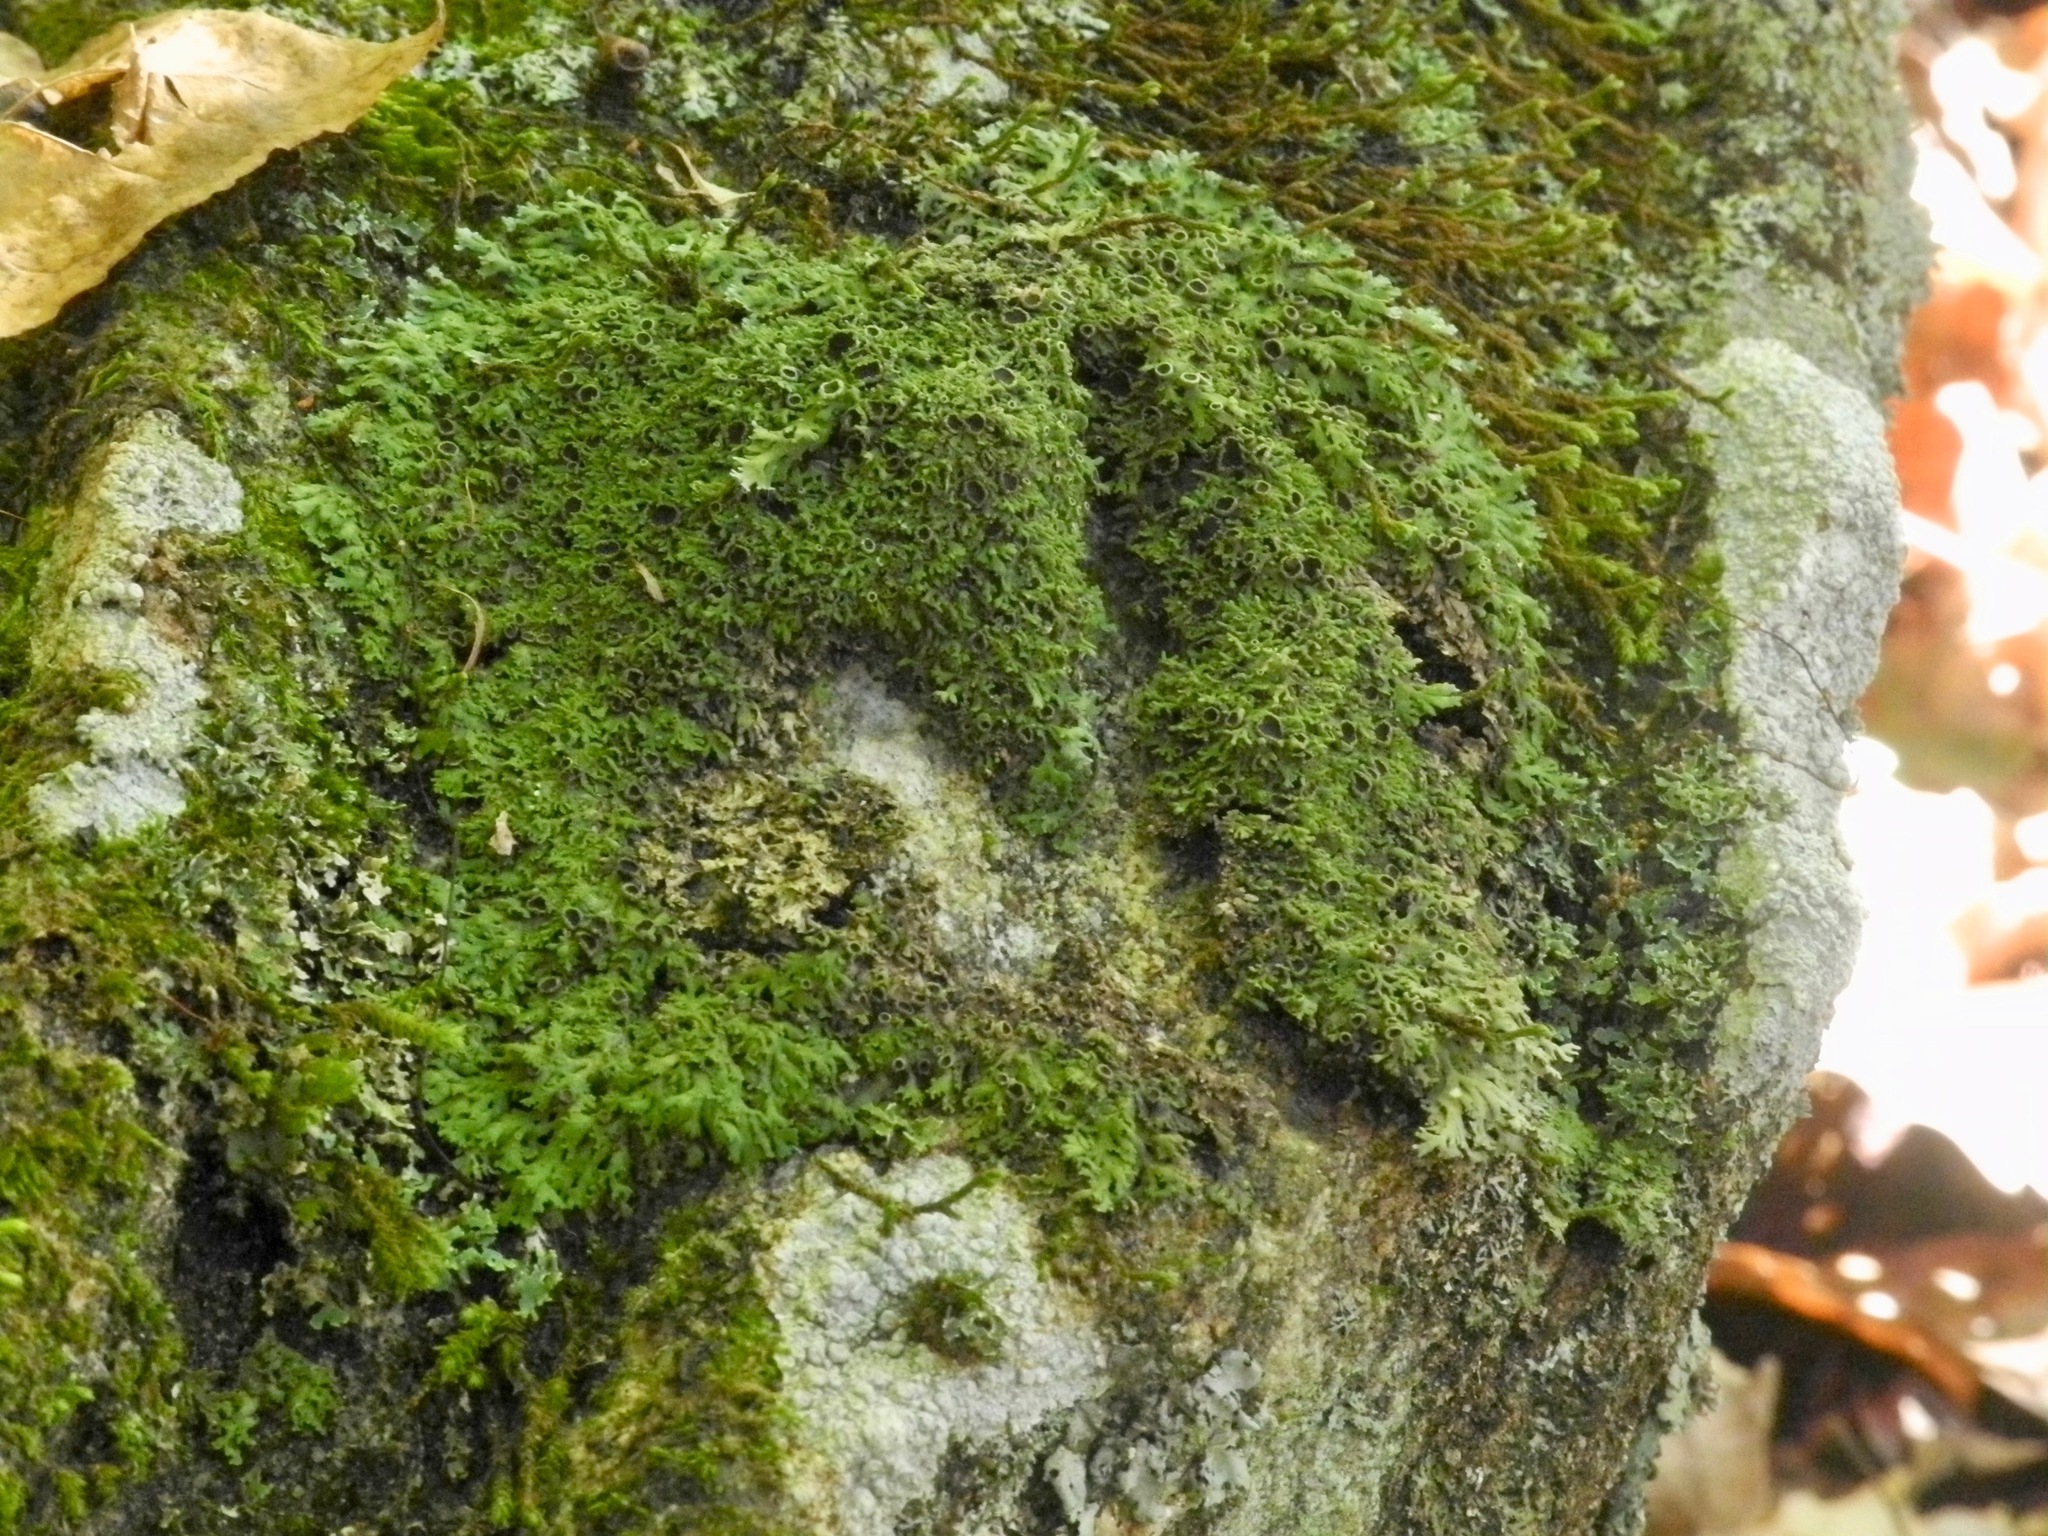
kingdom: Fungi
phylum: Ascomycota
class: Lecanoromycetes
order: Caliciales
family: Physciaceae
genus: Kurokawia
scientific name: Kurokawia palmulata
